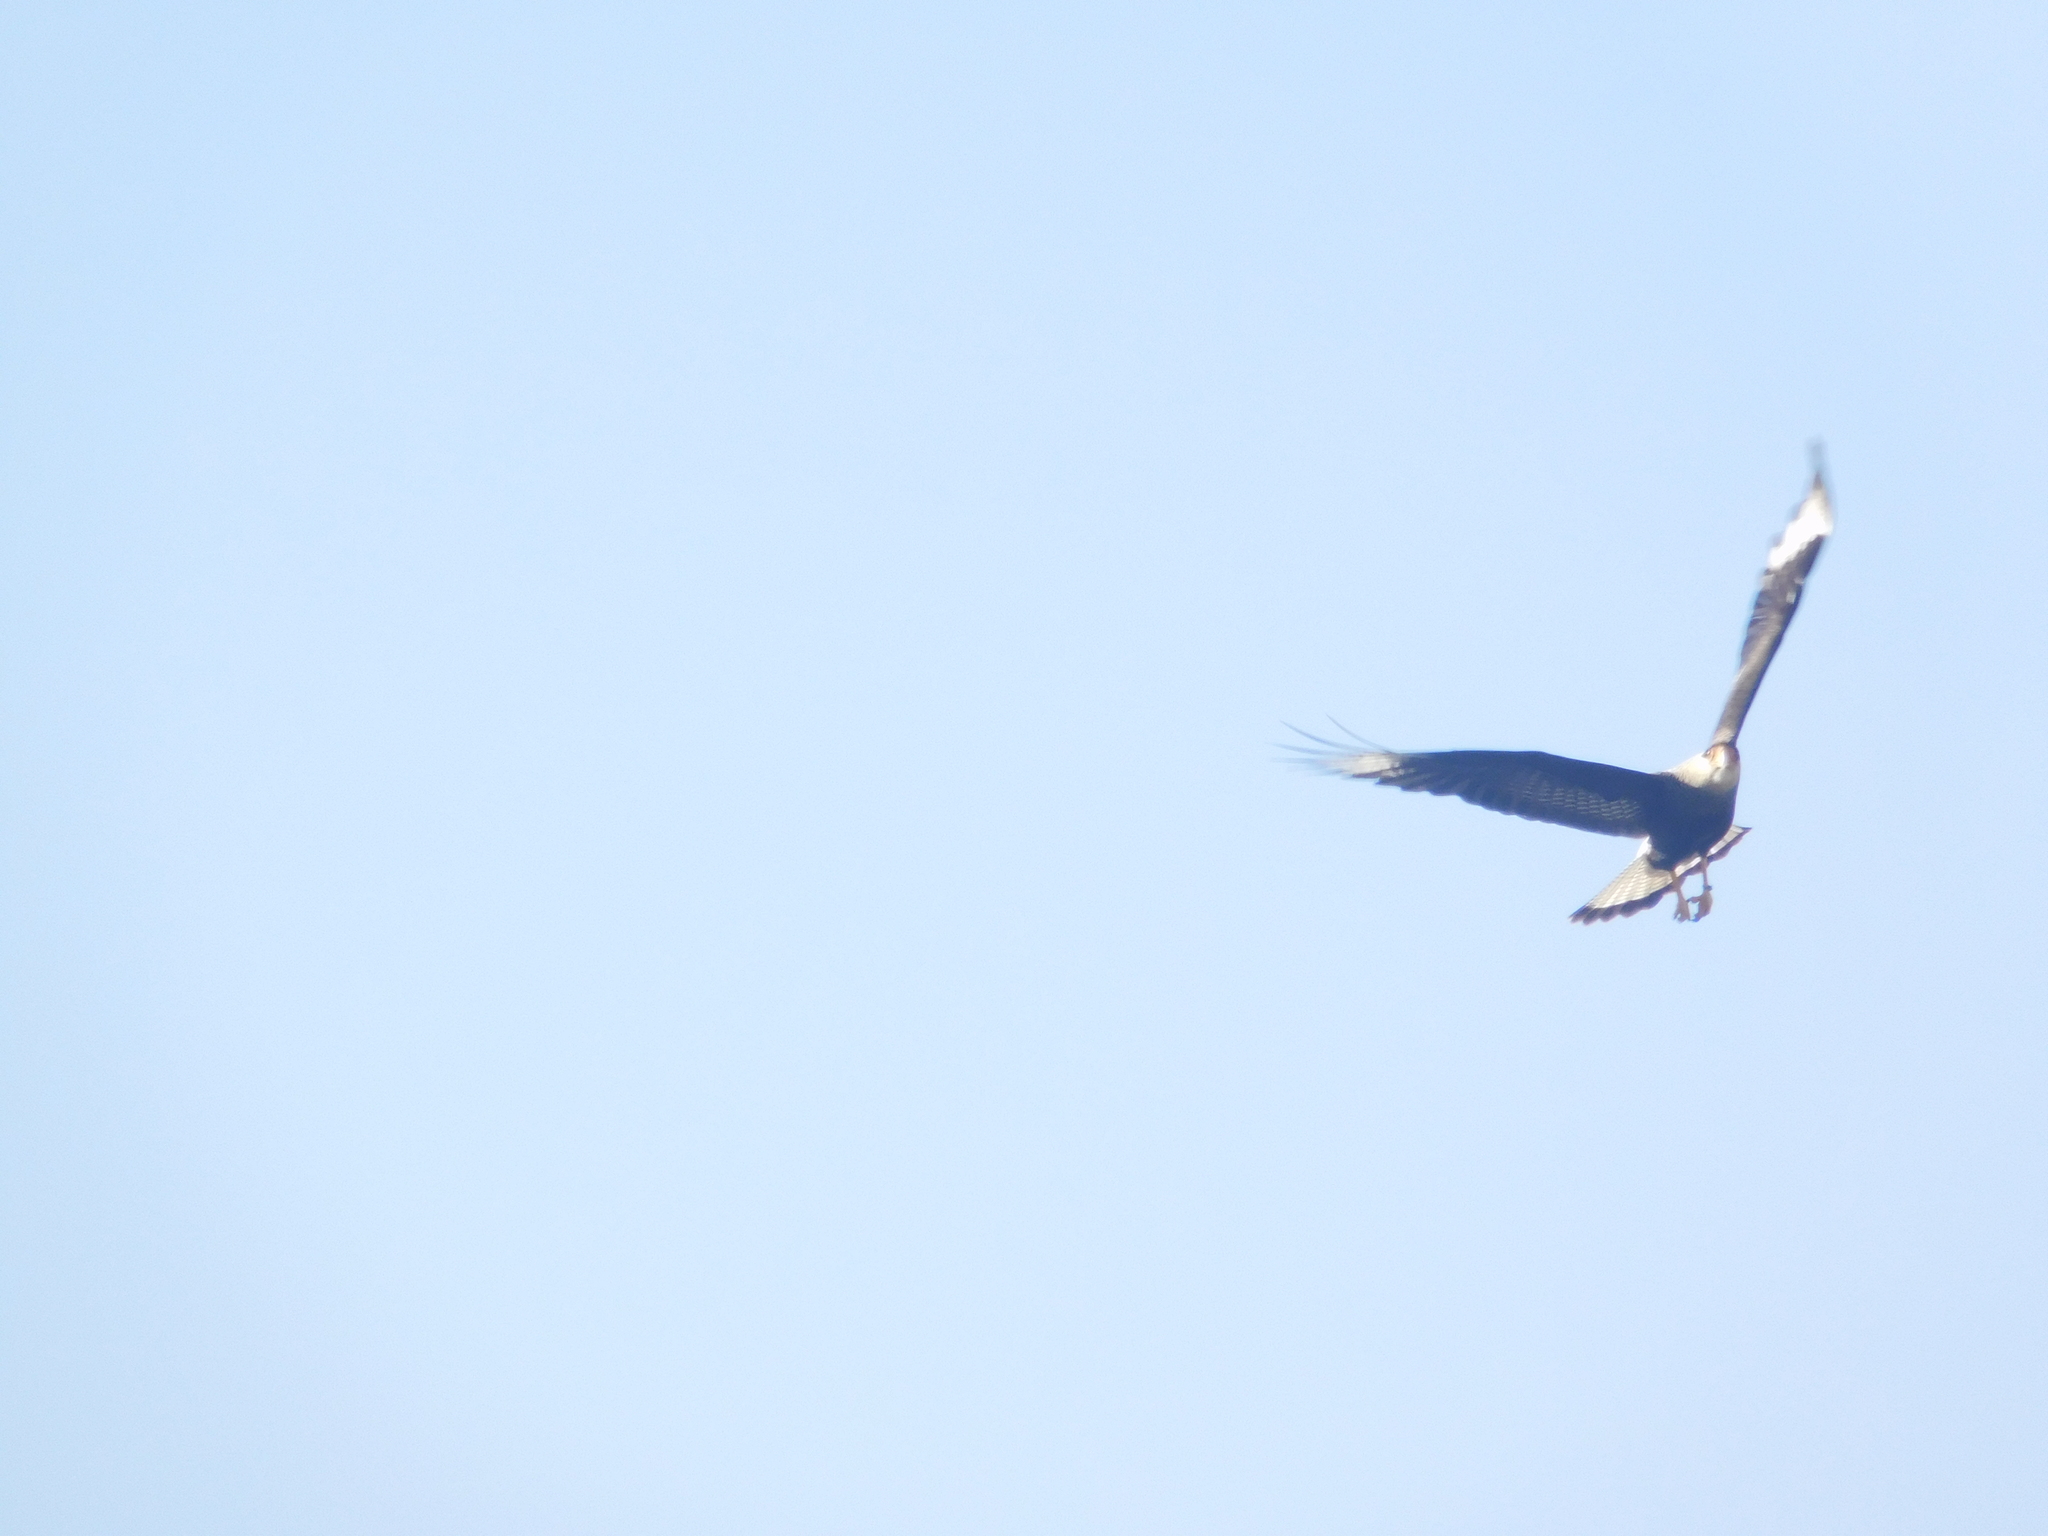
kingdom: Animalia
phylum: Chordata
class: Aves
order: Falconiformes
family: Falconidae
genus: Caracara
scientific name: Caracara plancus
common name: Southern caracara
